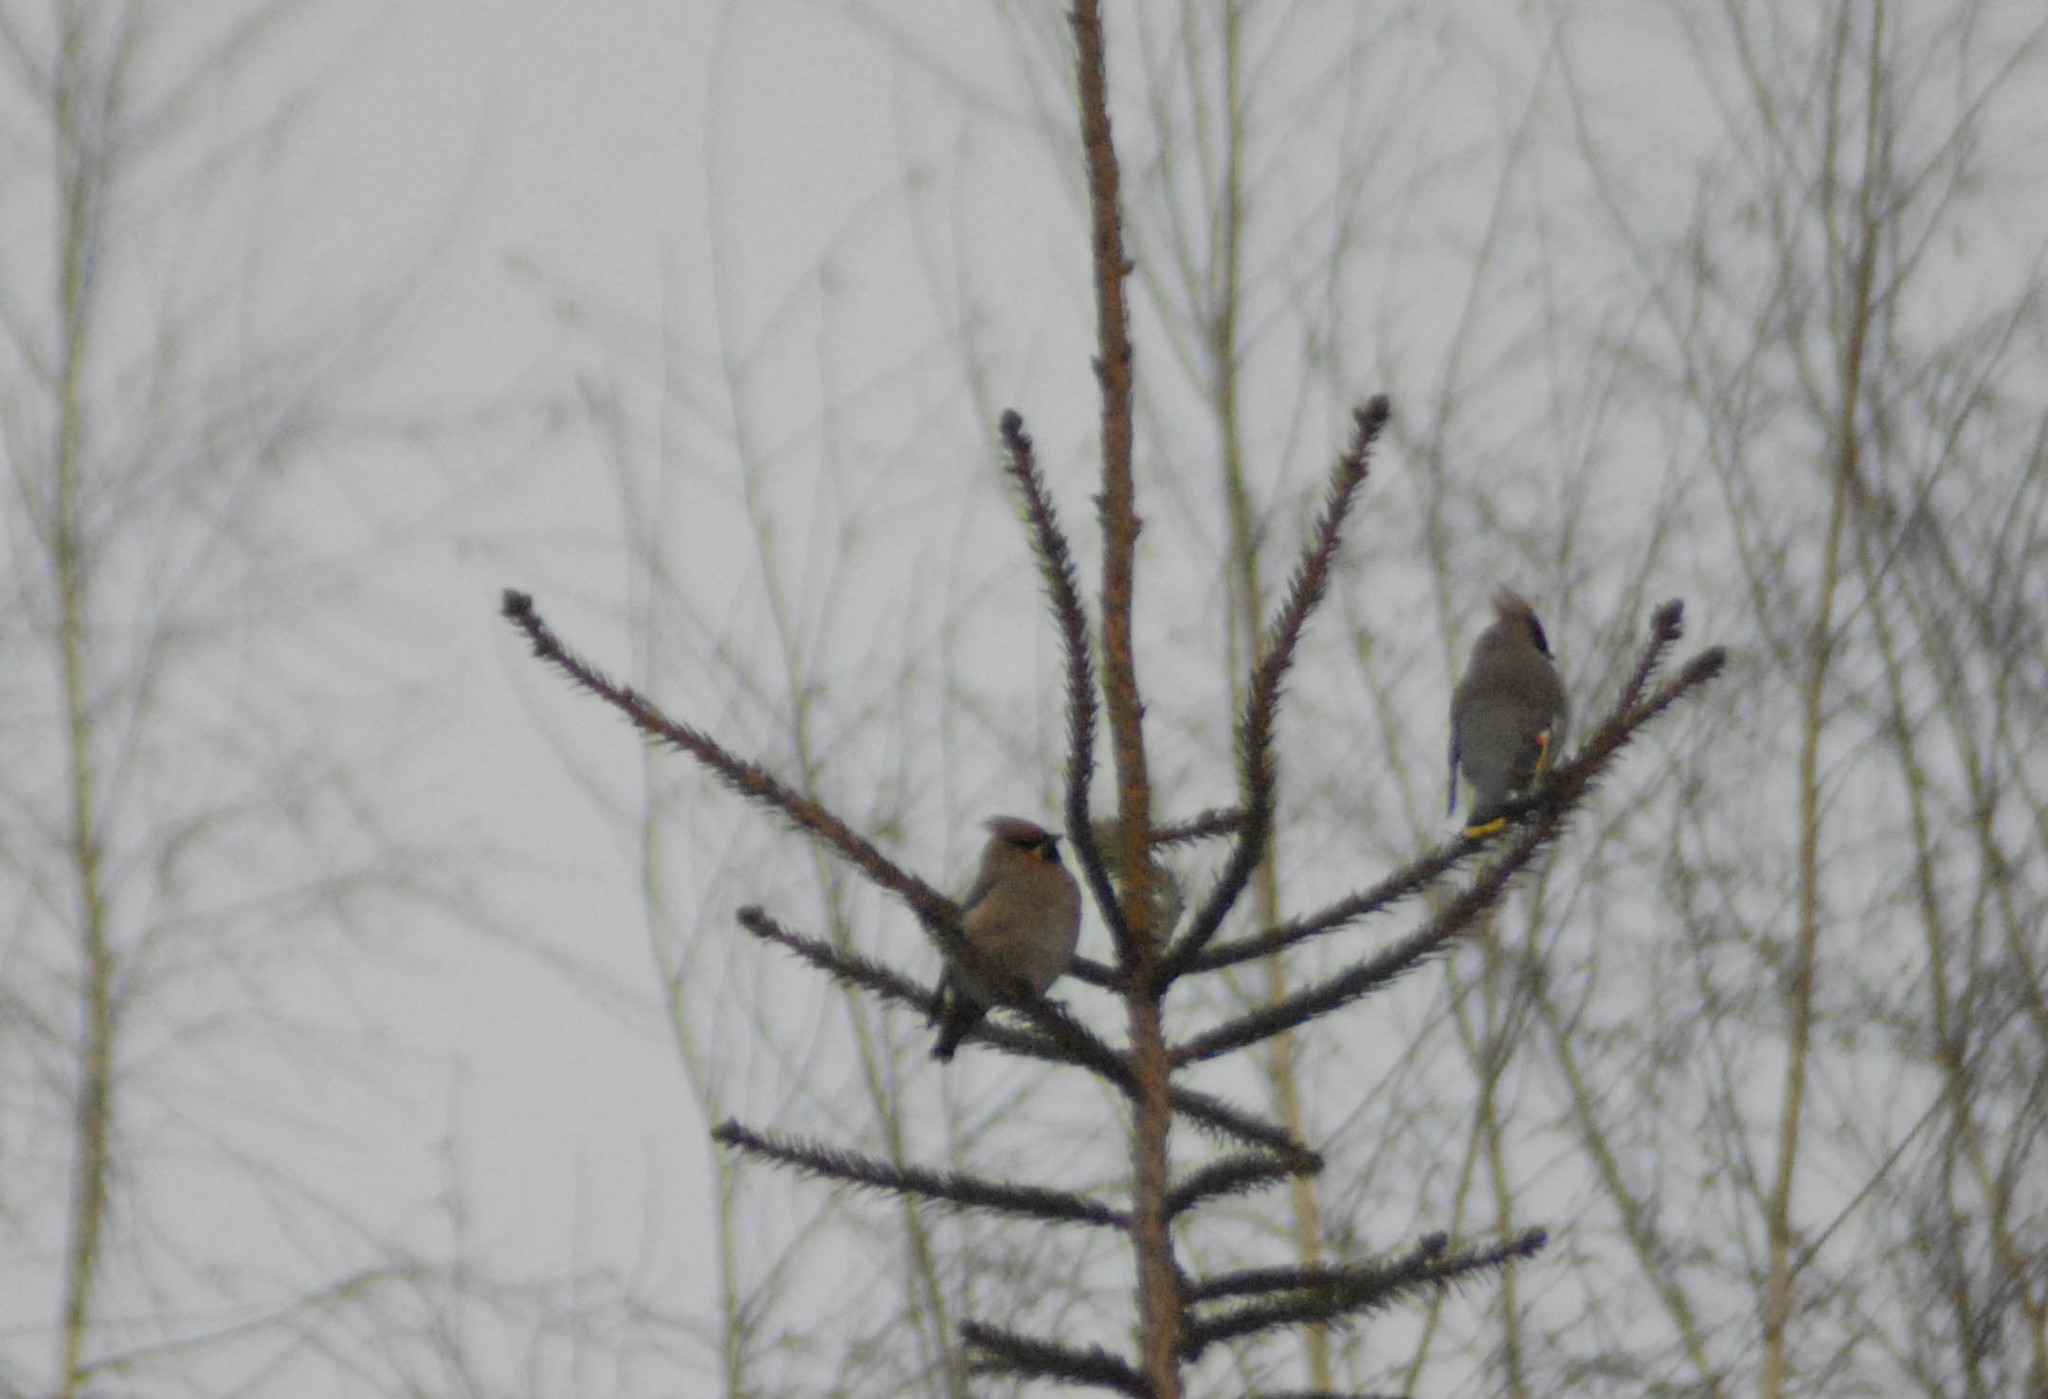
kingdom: Animalia
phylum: Chordata
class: Aves
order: Passeriformes
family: Bombycillidae
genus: Bombycilla
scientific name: Bombycilla garrulus
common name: Bohemian waxwing
